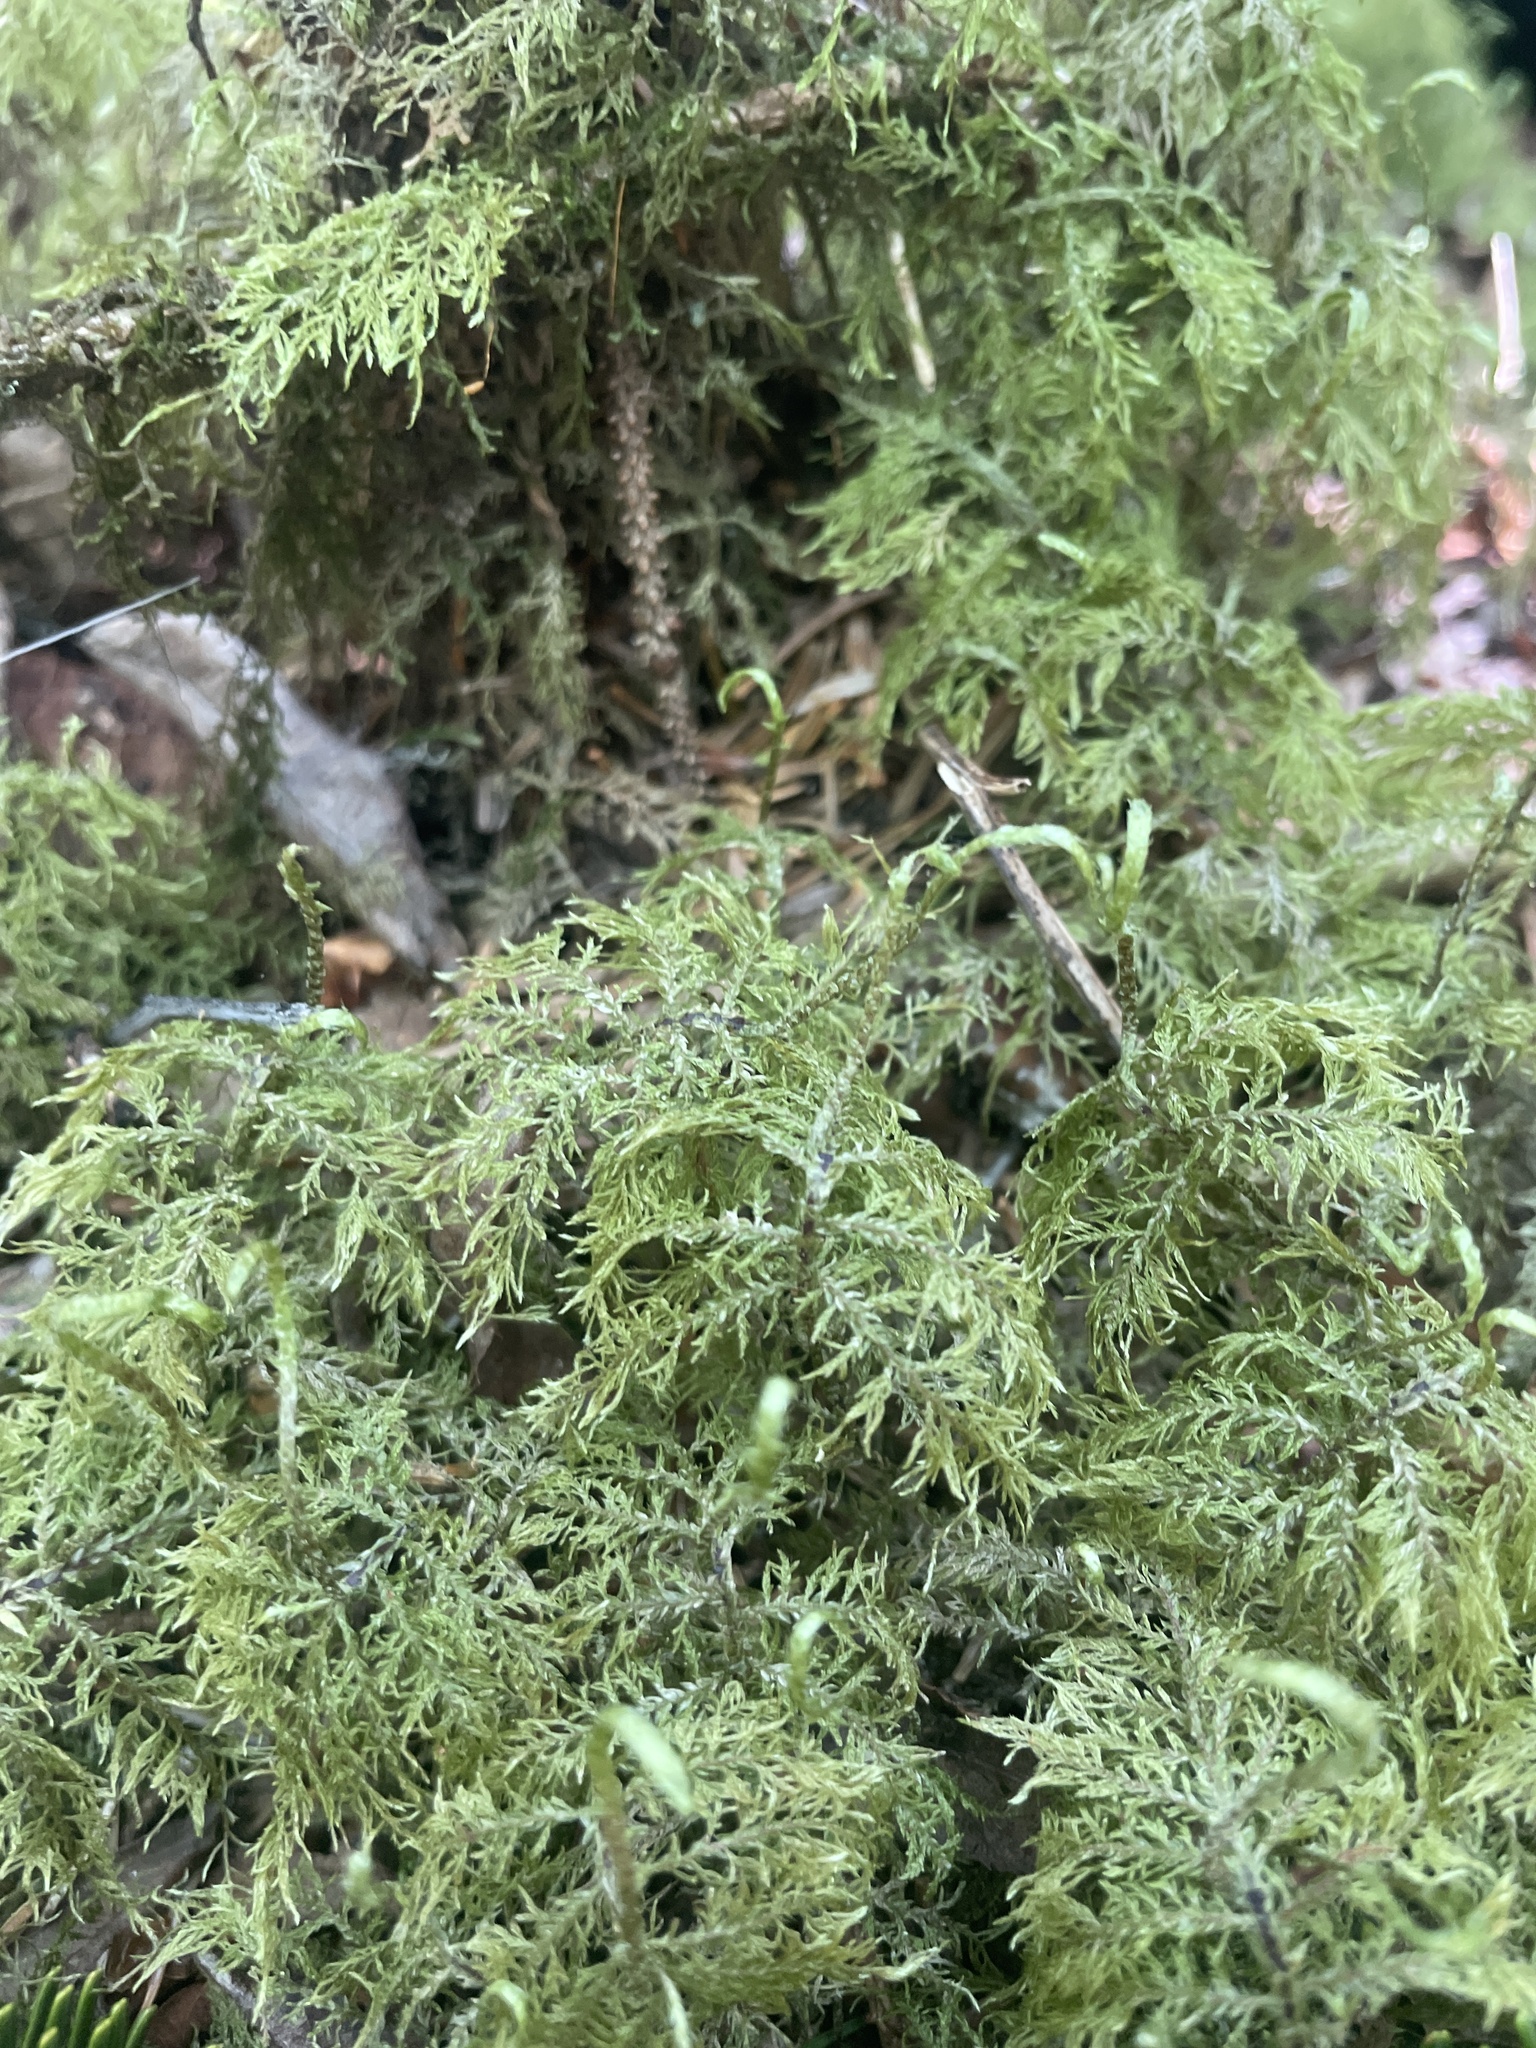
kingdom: Plantae
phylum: Bryophyta
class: Bryopsida
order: Hypnales
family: Hylocomiaceae
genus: Hylocomium
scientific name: Hylocomium splendens
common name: Stairstep moss
